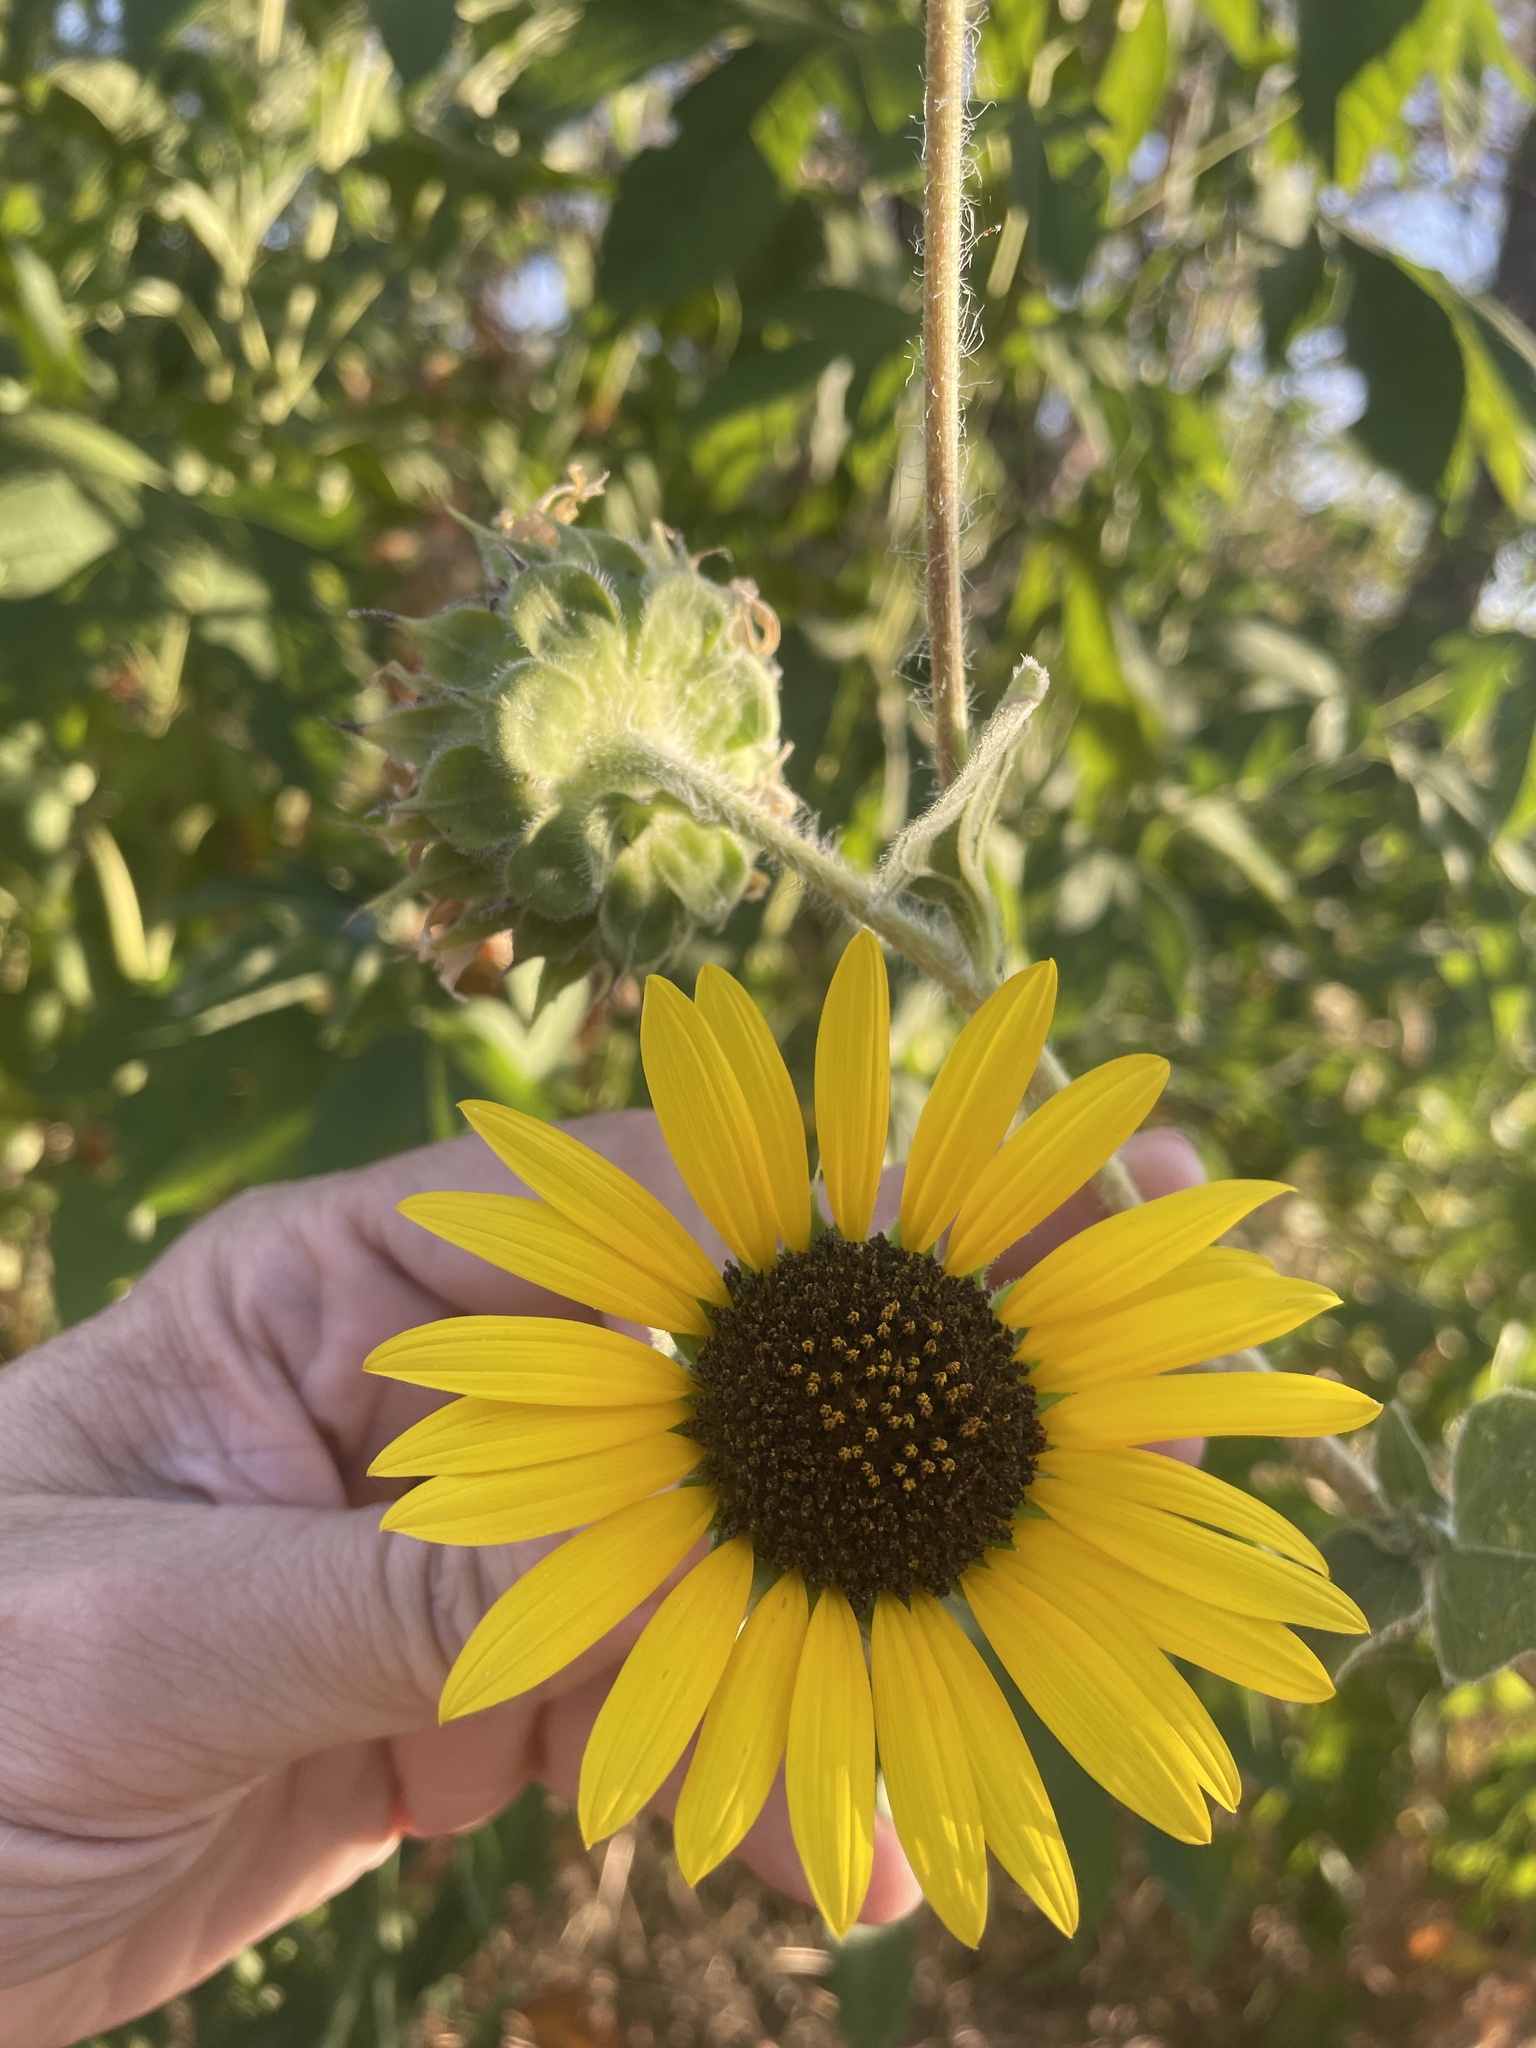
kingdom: Plantae
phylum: Tracheophyta
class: Magnoliopsida
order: Asterales
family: Asteraceae
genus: Helianthus
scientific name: Helianthus annuus
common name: Sunflower
